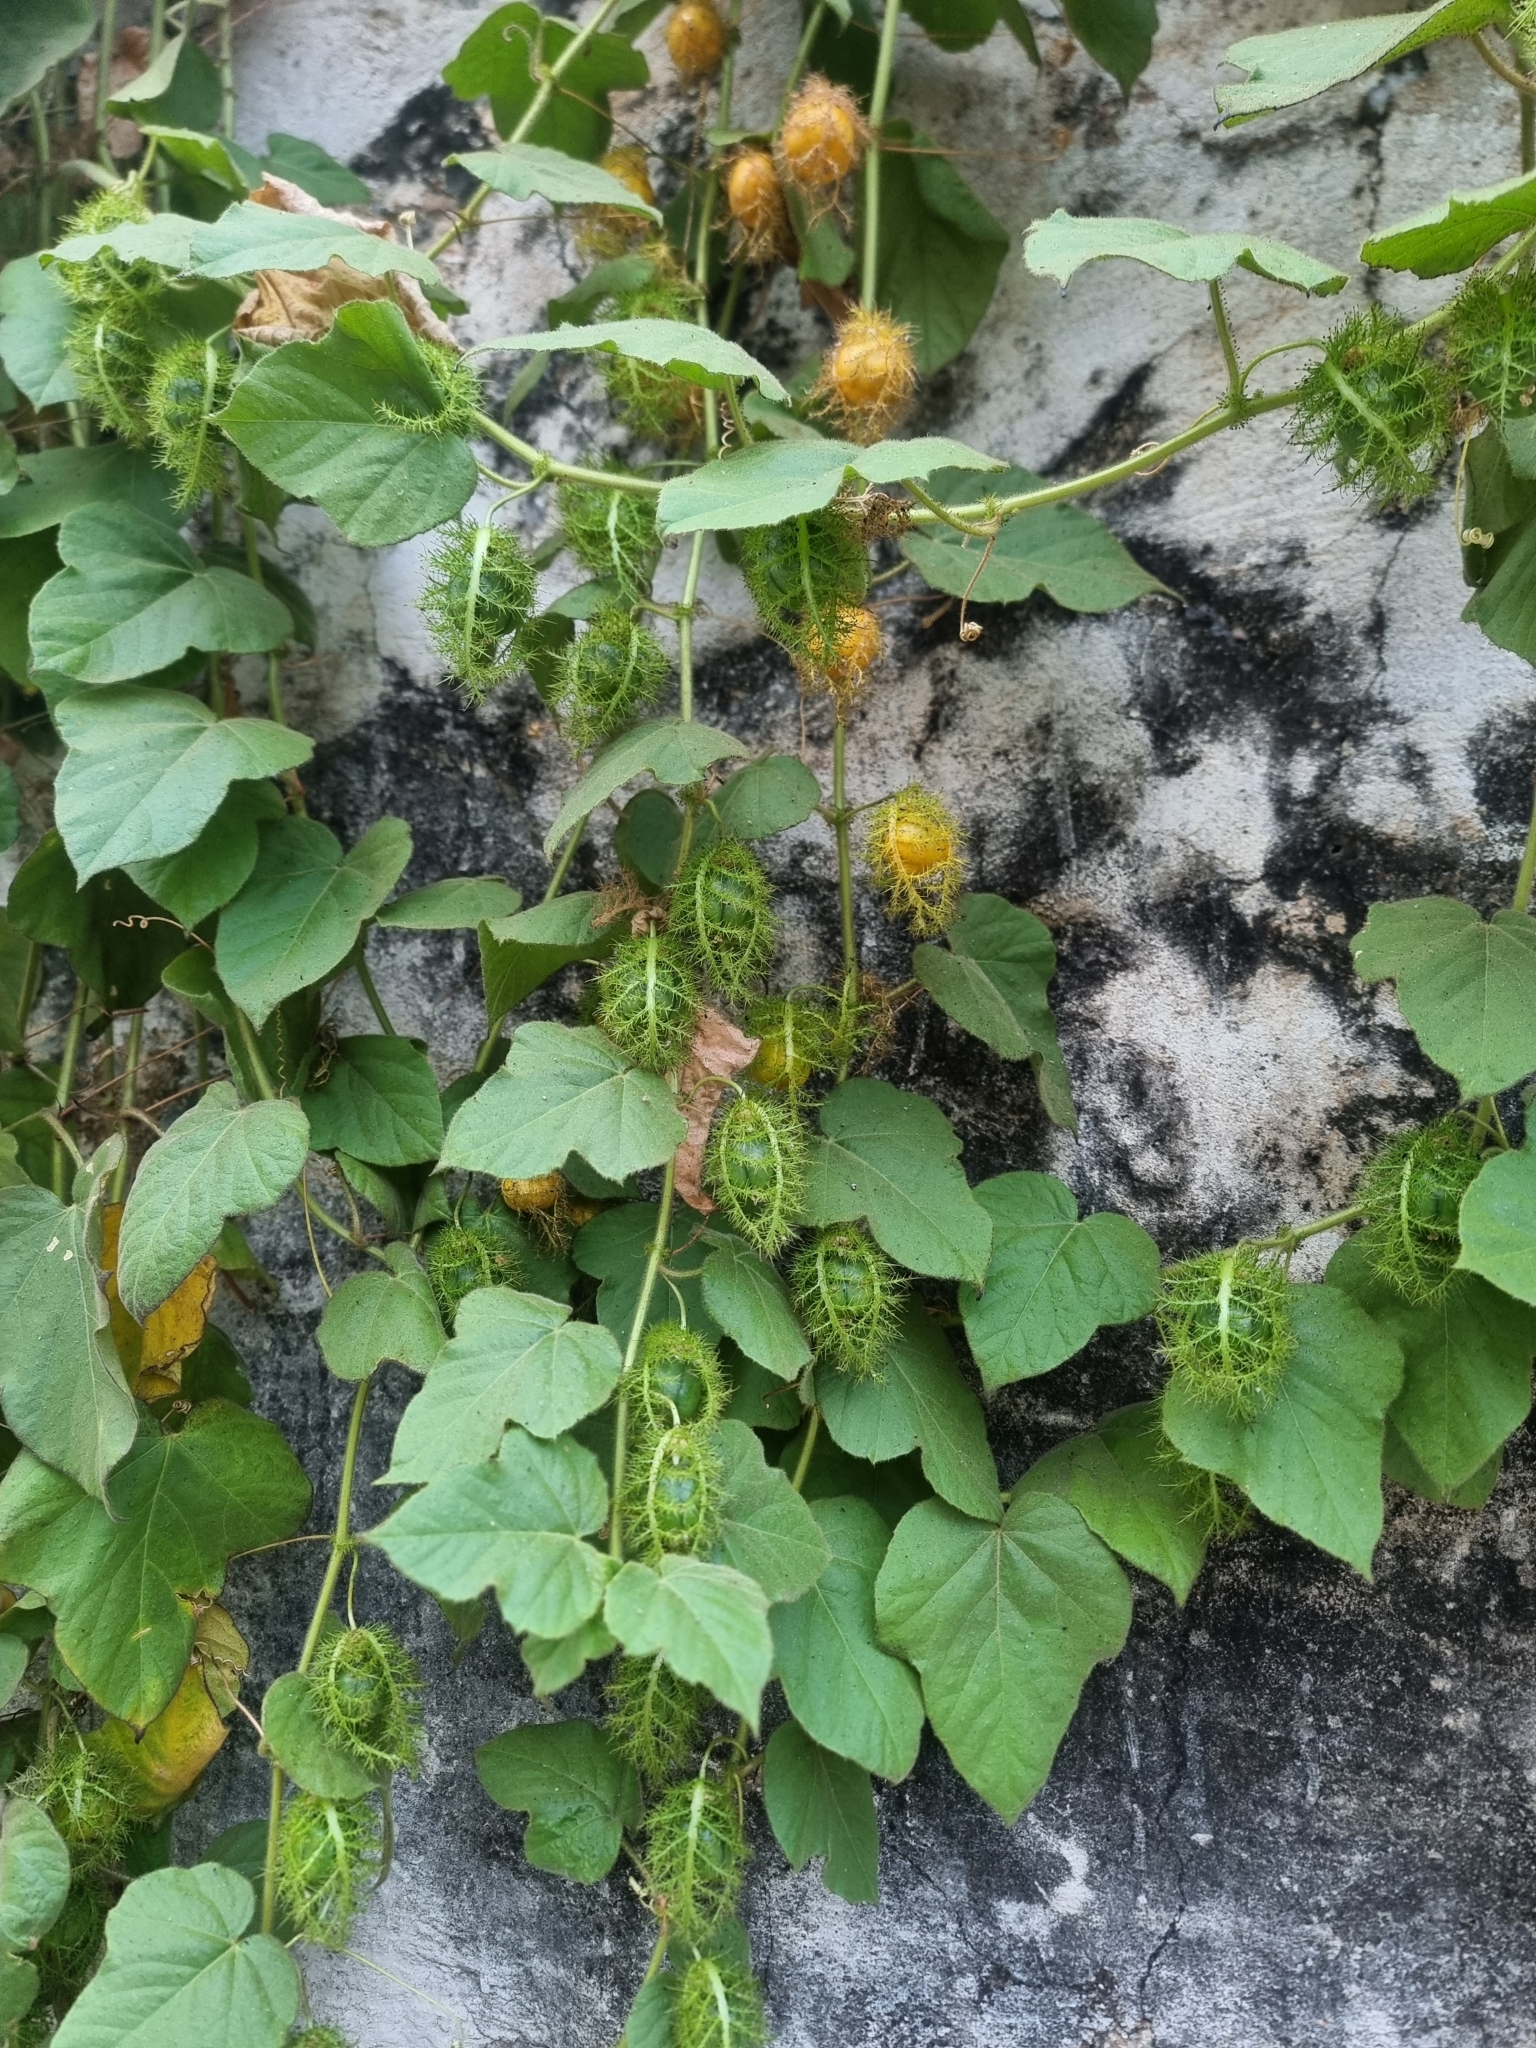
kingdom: Plantae
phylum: Tracheophyta
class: Magnoliopsida
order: Malpighiales
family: Passifloraceae
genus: Passiflora
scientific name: Passiflora vesicaria
